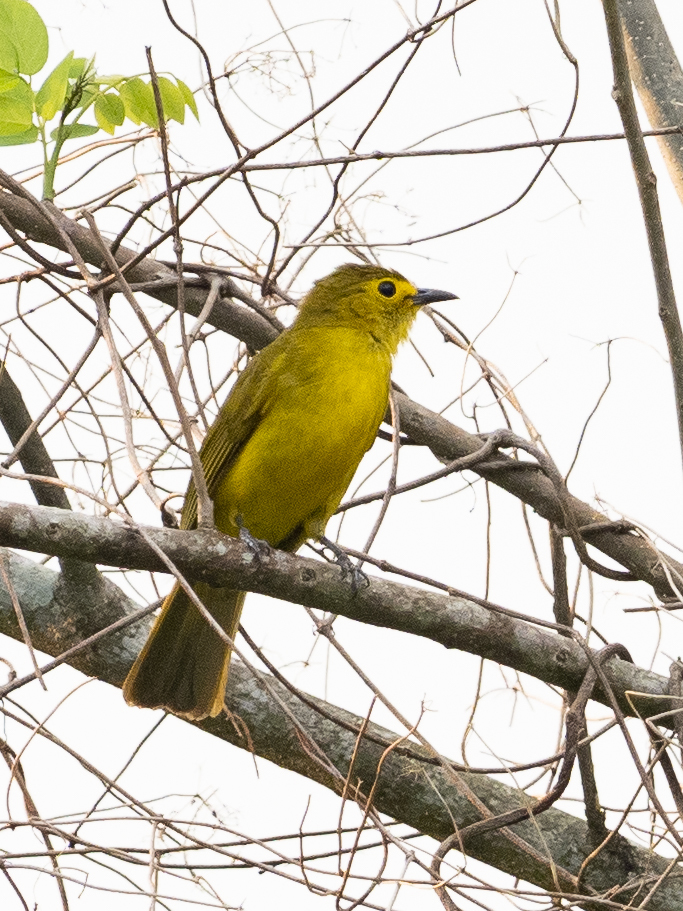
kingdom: Animalia
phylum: Chordata
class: Aves
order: Passeriformes
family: Pycnonotidae
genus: Acritillas
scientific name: Acritillas indica
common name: Yellow-browed bulbul
